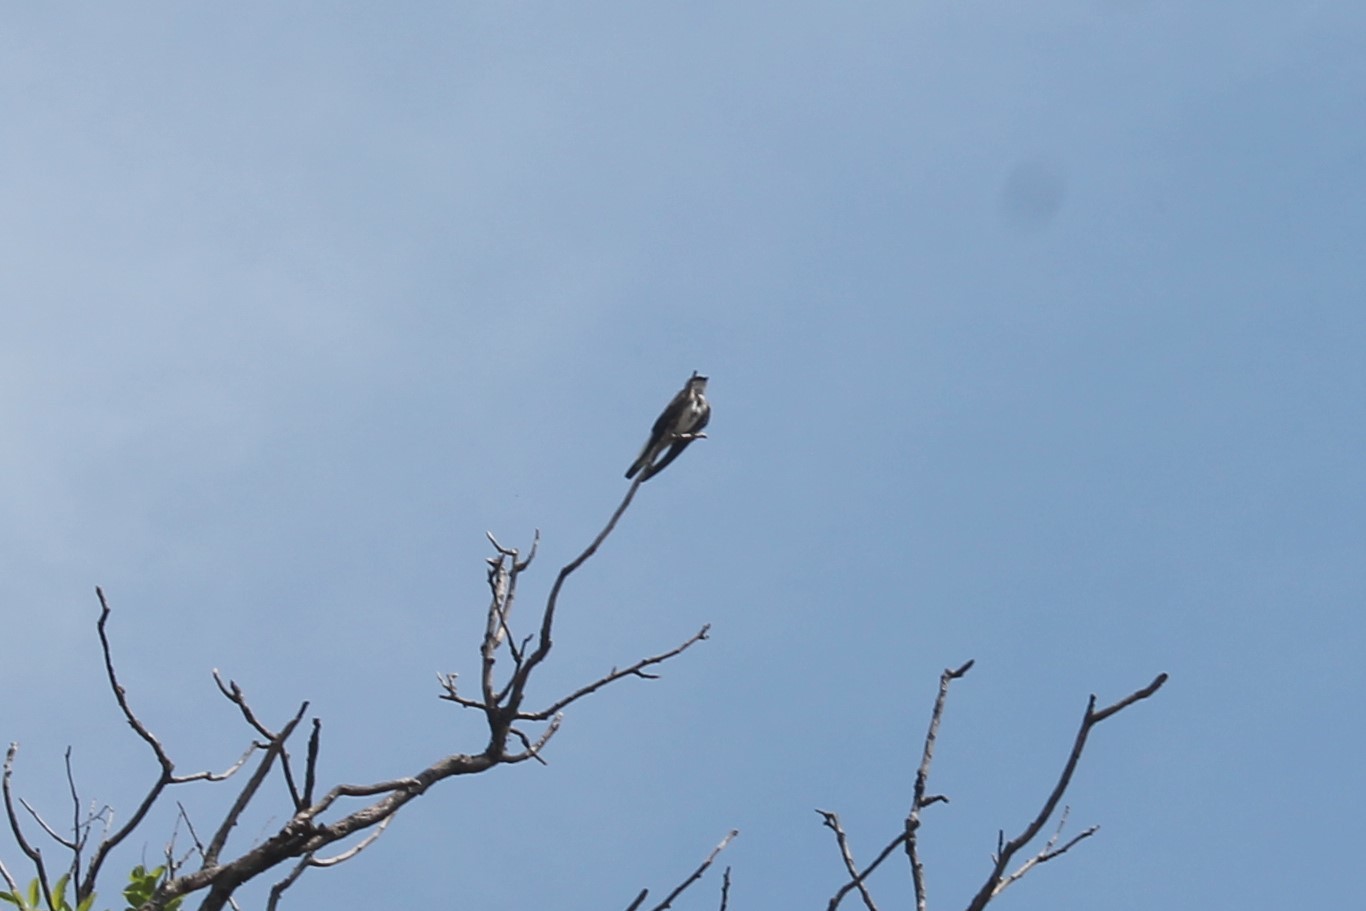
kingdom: Animalia
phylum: Chordata
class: Aves
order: Passeriformes
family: Hirundinidae
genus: Progne
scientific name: Progne tapera
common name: Brown-chested martin
